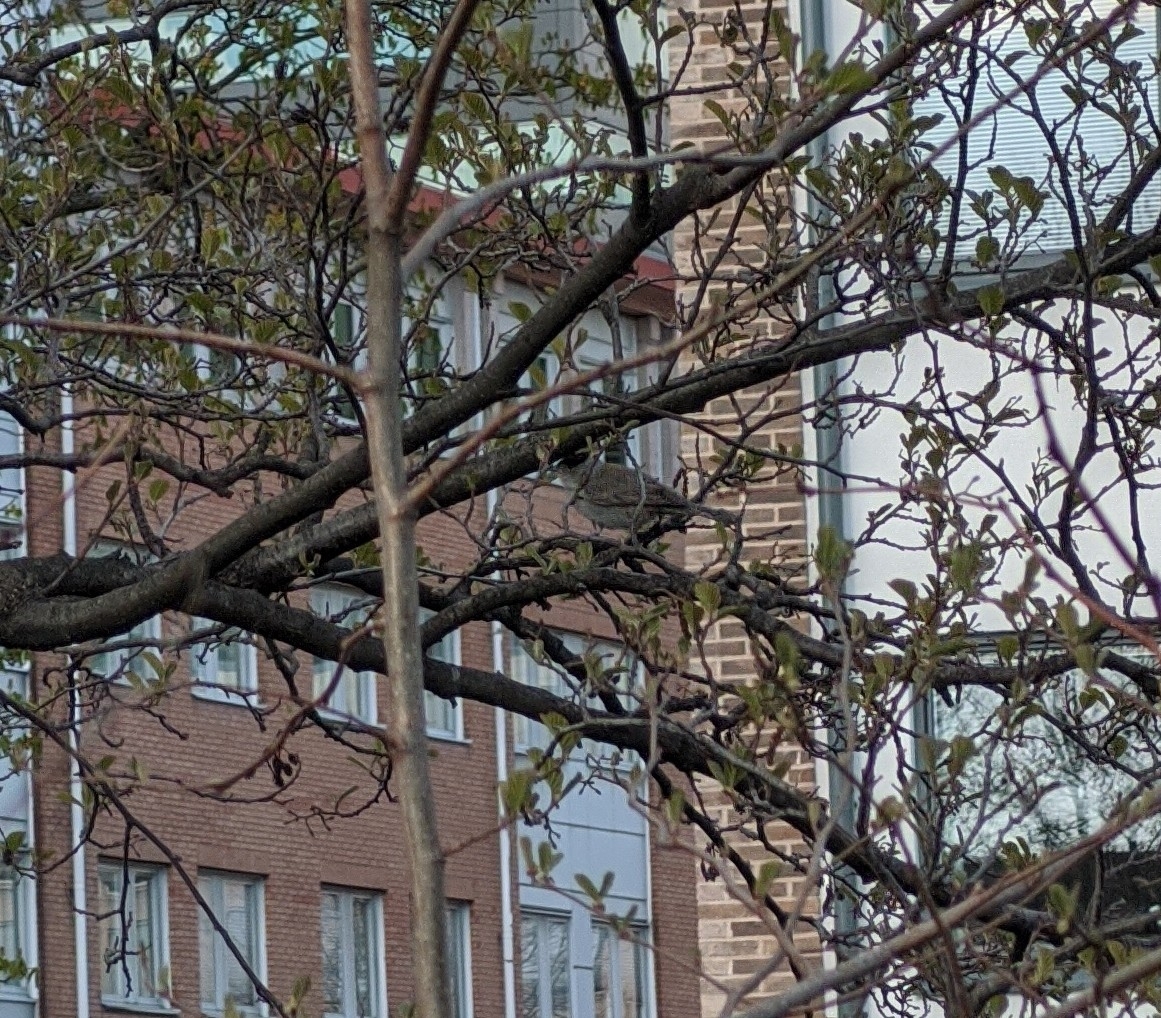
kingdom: Animalia
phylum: Chordata
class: Aves
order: Passeriformes
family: Sylviidae
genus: Sylvia
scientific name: Sylvia atricapilla
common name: Eurasian blackcap
